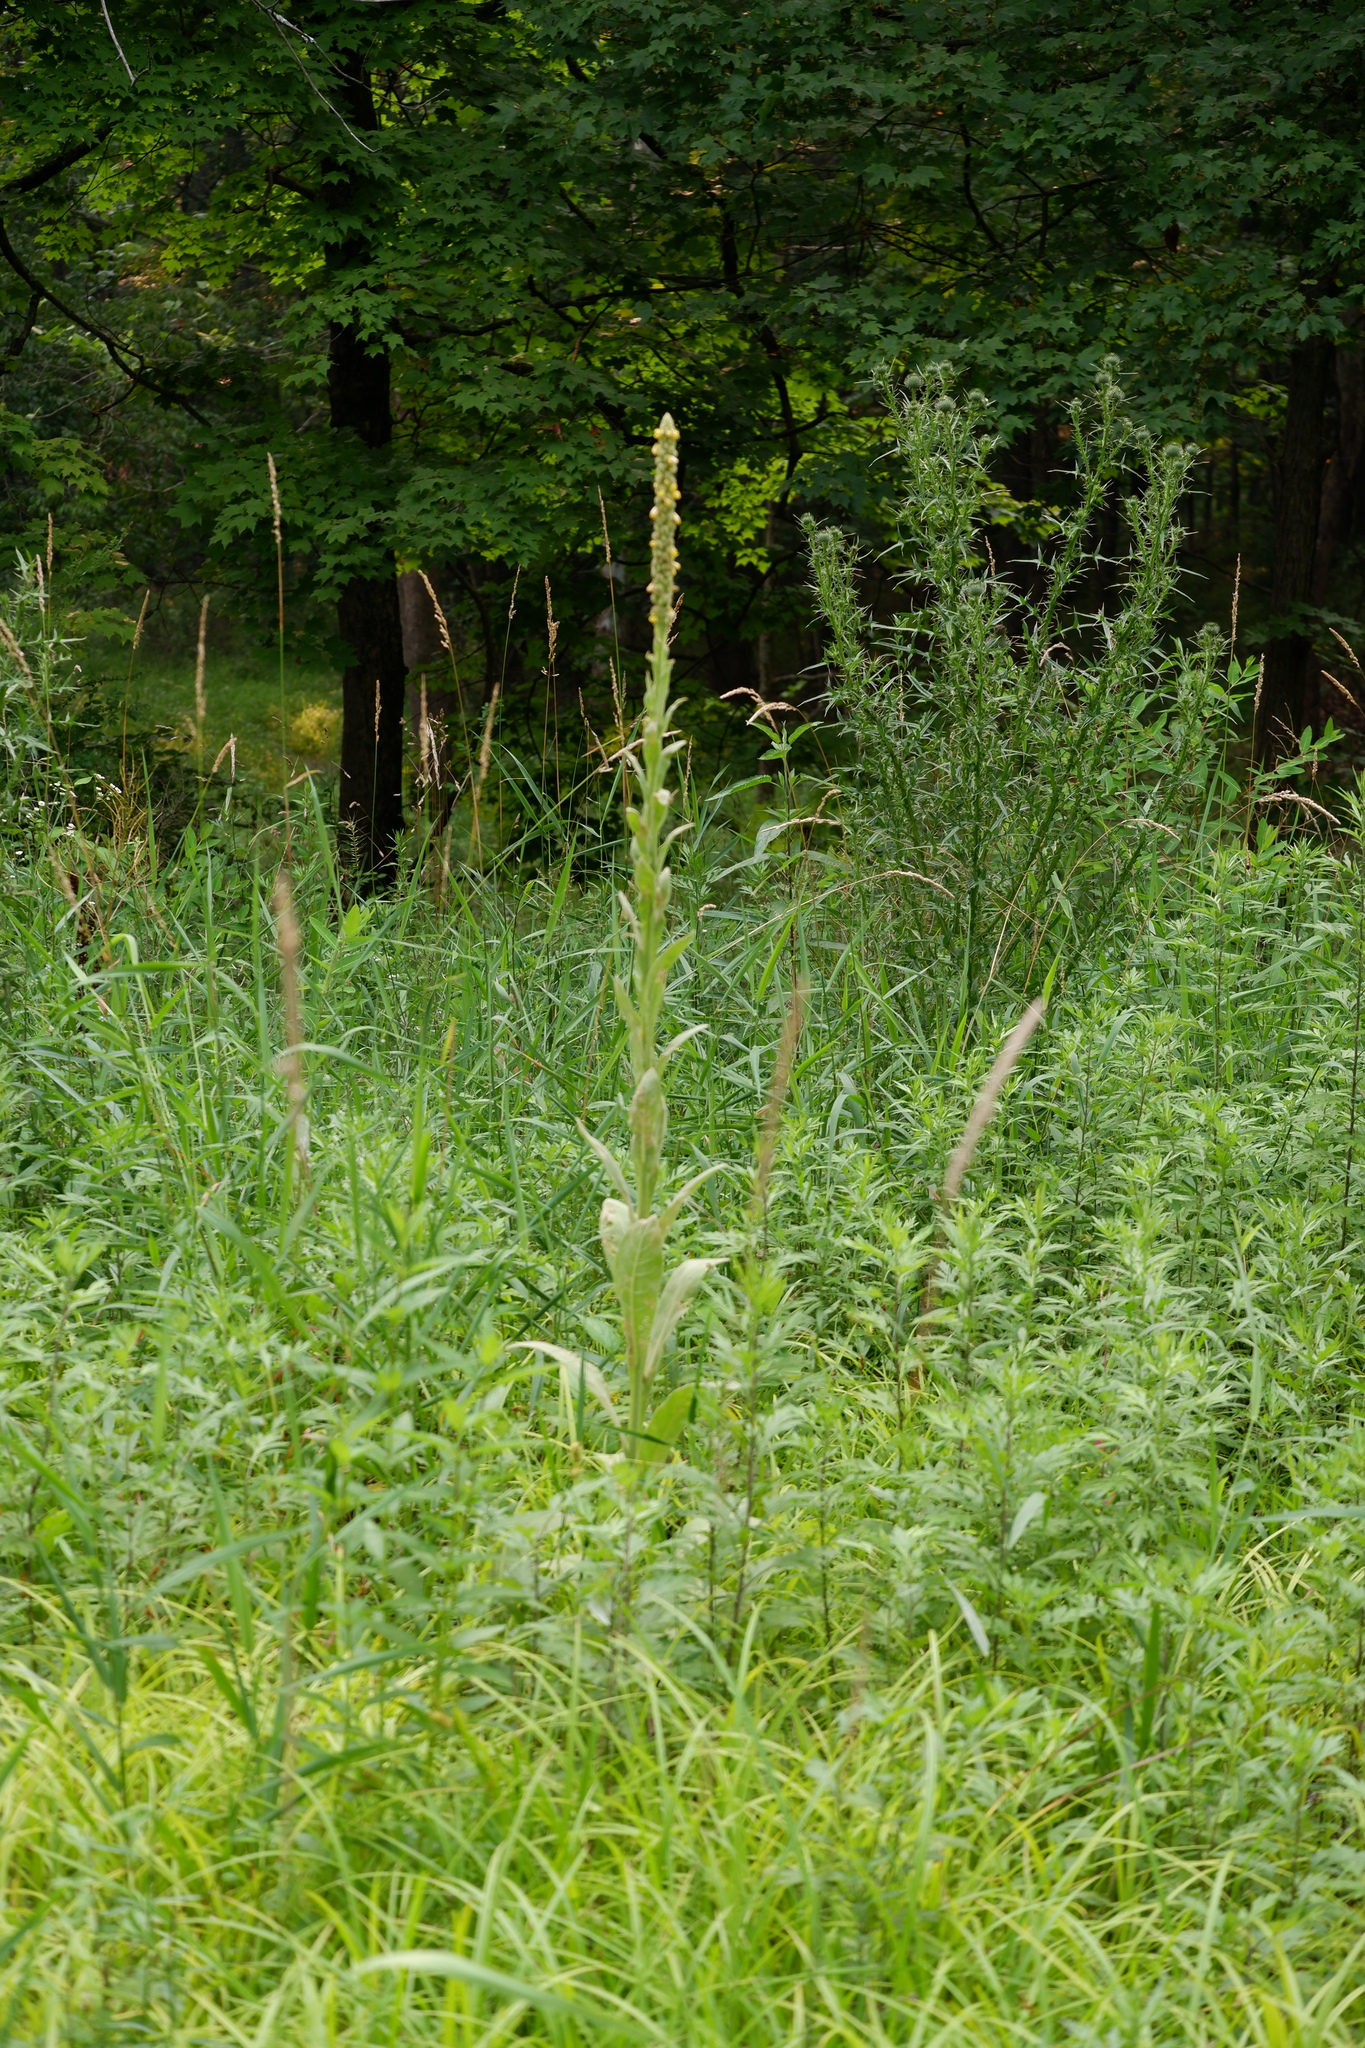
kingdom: Plantae
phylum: Tracheophyta
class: Magnoliopsida
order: Lamiales
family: Scrophulariaceae
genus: Verbascum
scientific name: Verbascum thapsus
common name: Common mullein
